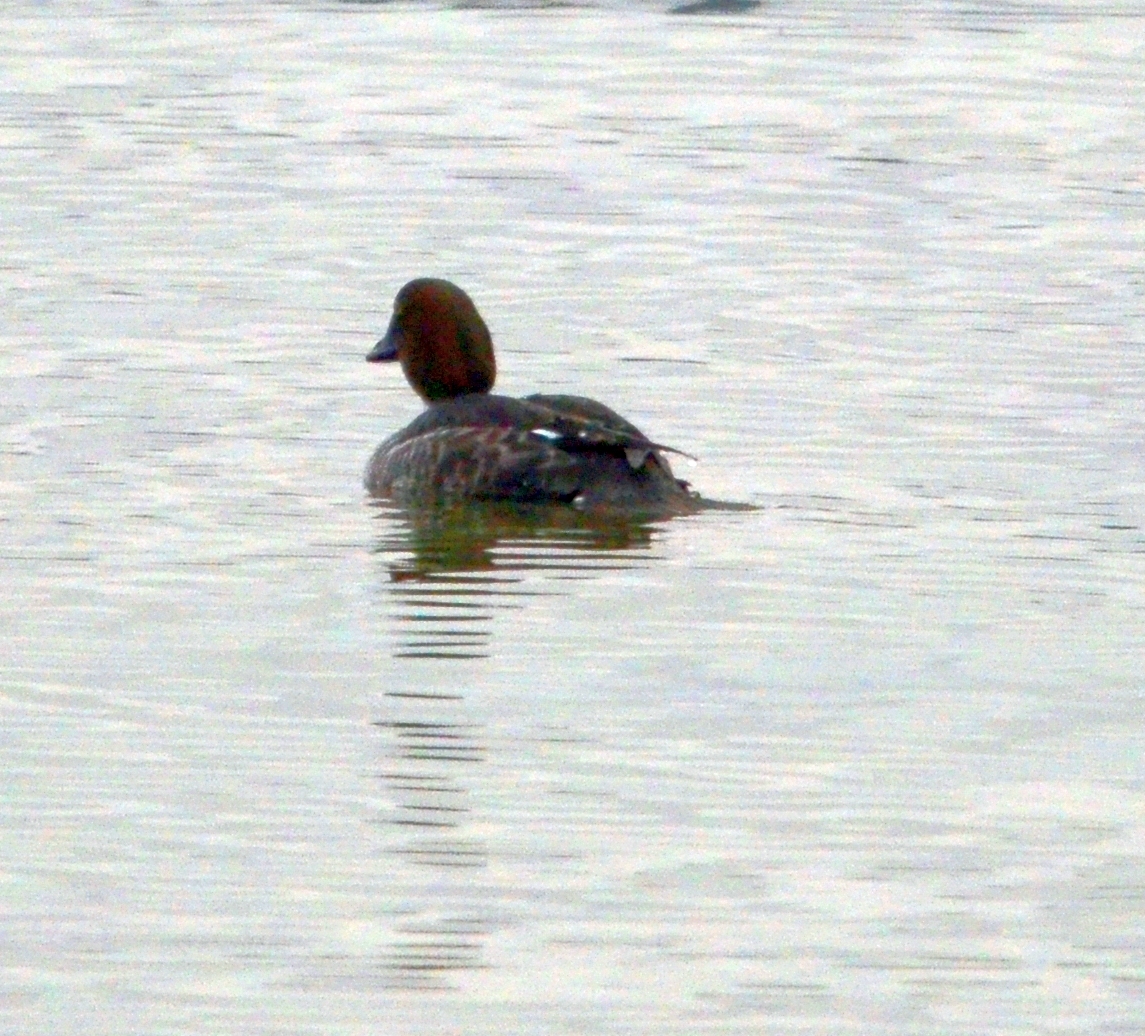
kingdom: Animalia
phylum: Chordata
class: Aves
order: Anseriformes
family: Anatidae
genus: Bucephala
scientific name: Bucephala clangula
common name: Common goldeneye
